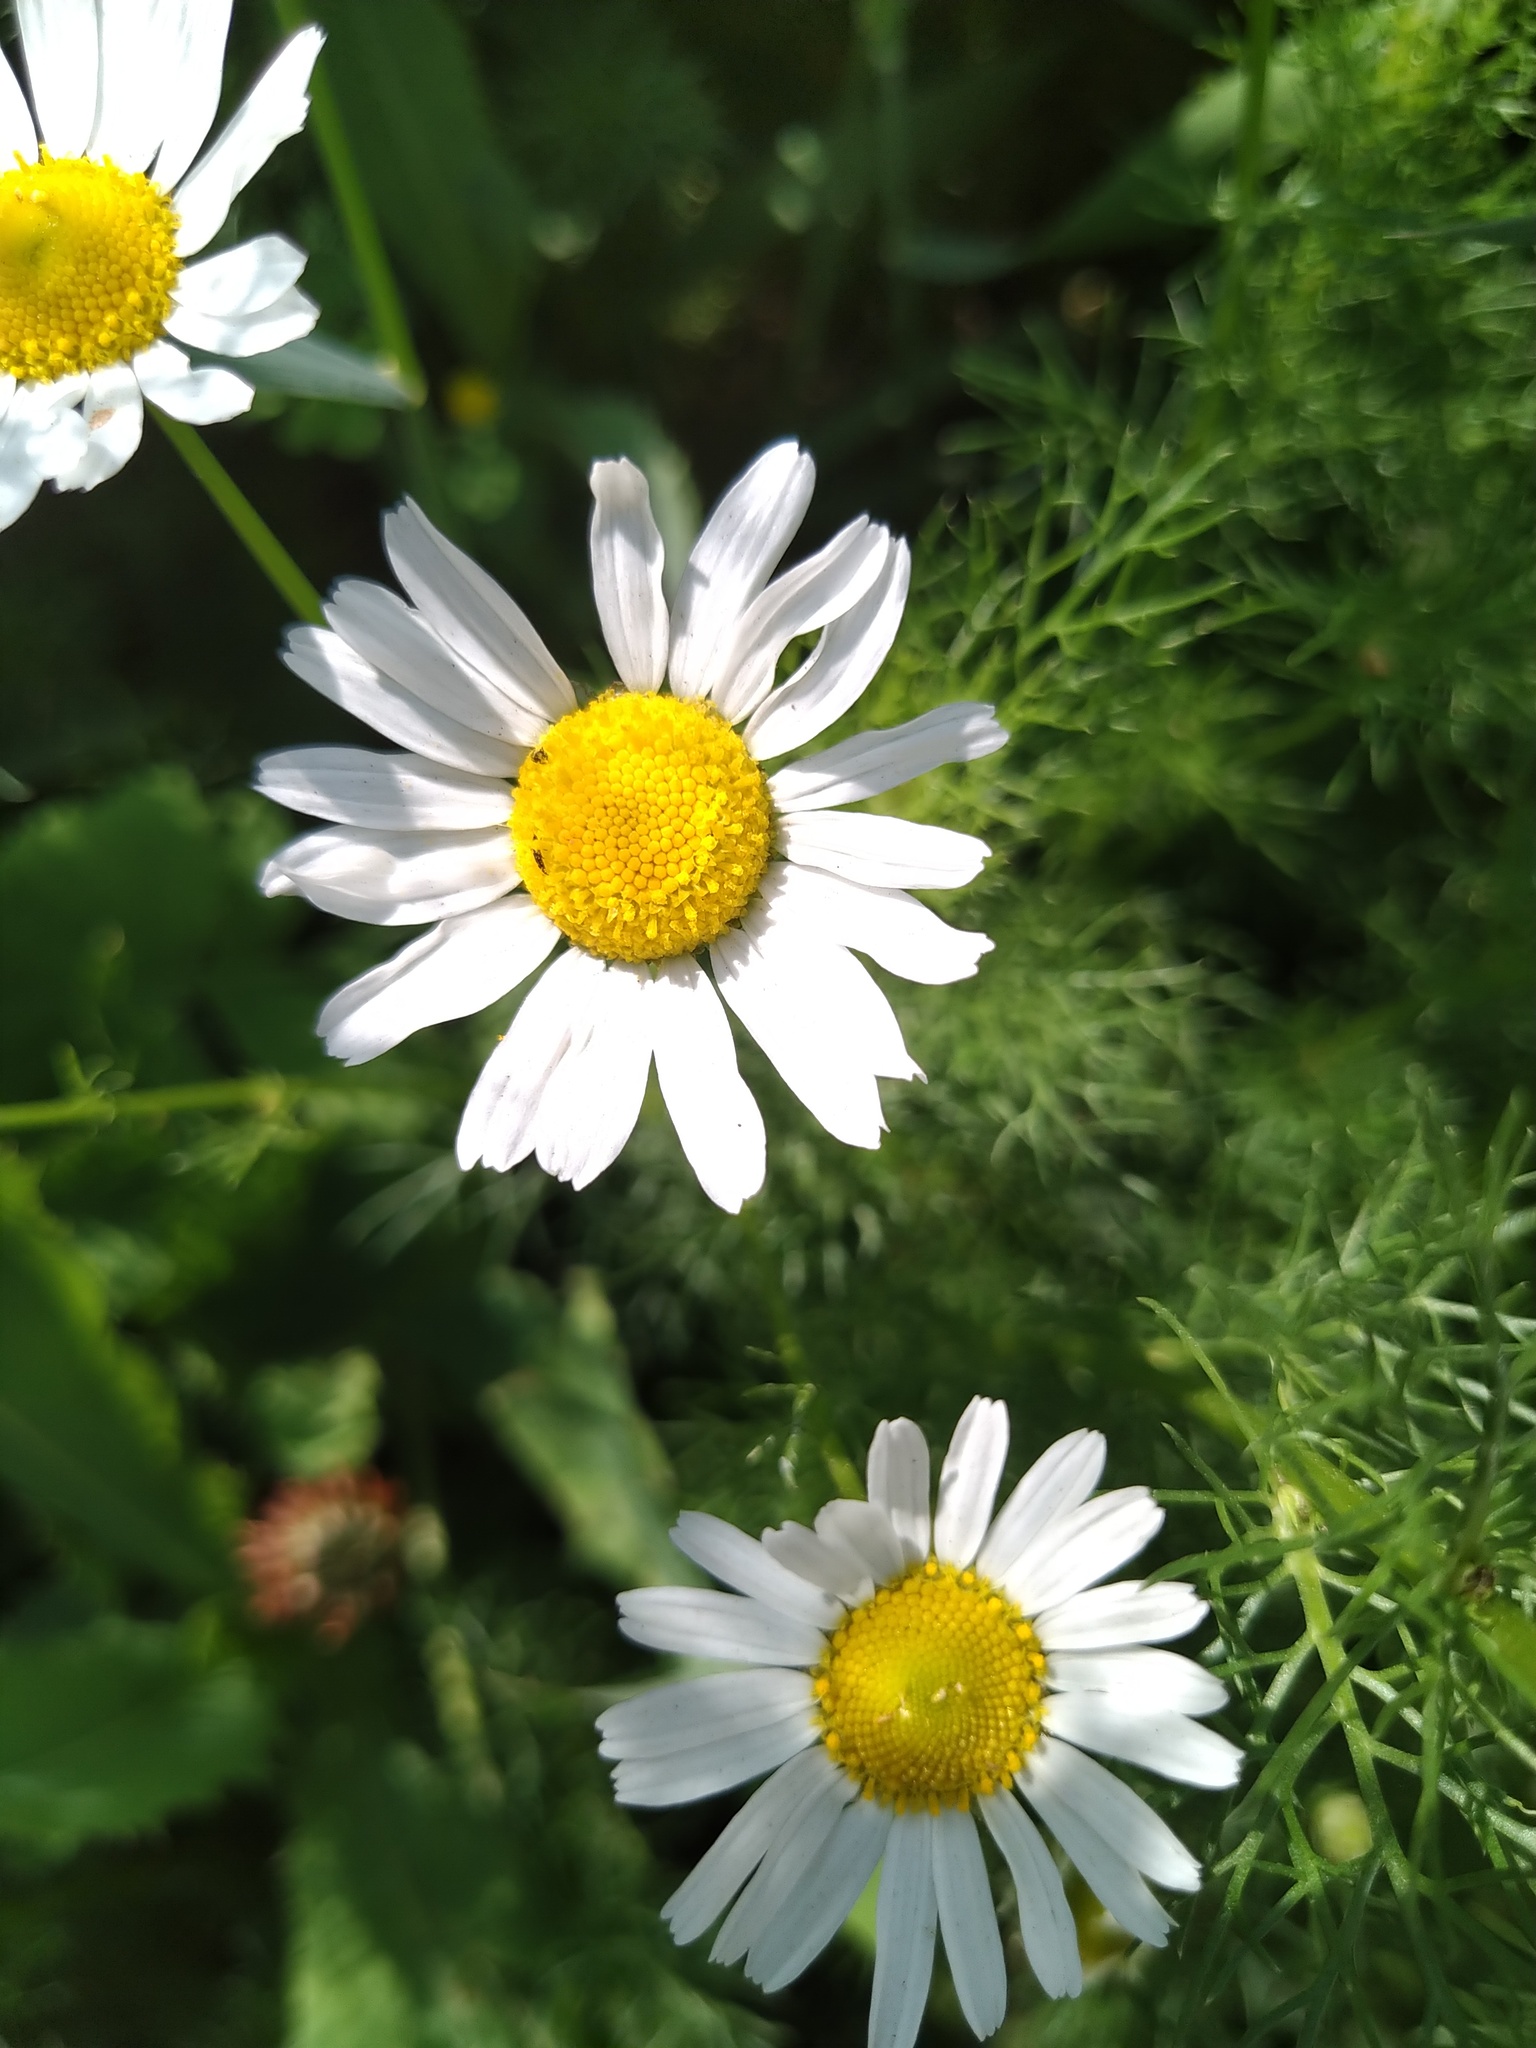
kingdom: Plantae
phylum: Tracheophyta
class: Magnoliopsida
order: Asterales
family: Asteraceae
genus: Tripleurospermum
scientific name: Tripleurospermum inodorum
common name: Scentless mayweed
